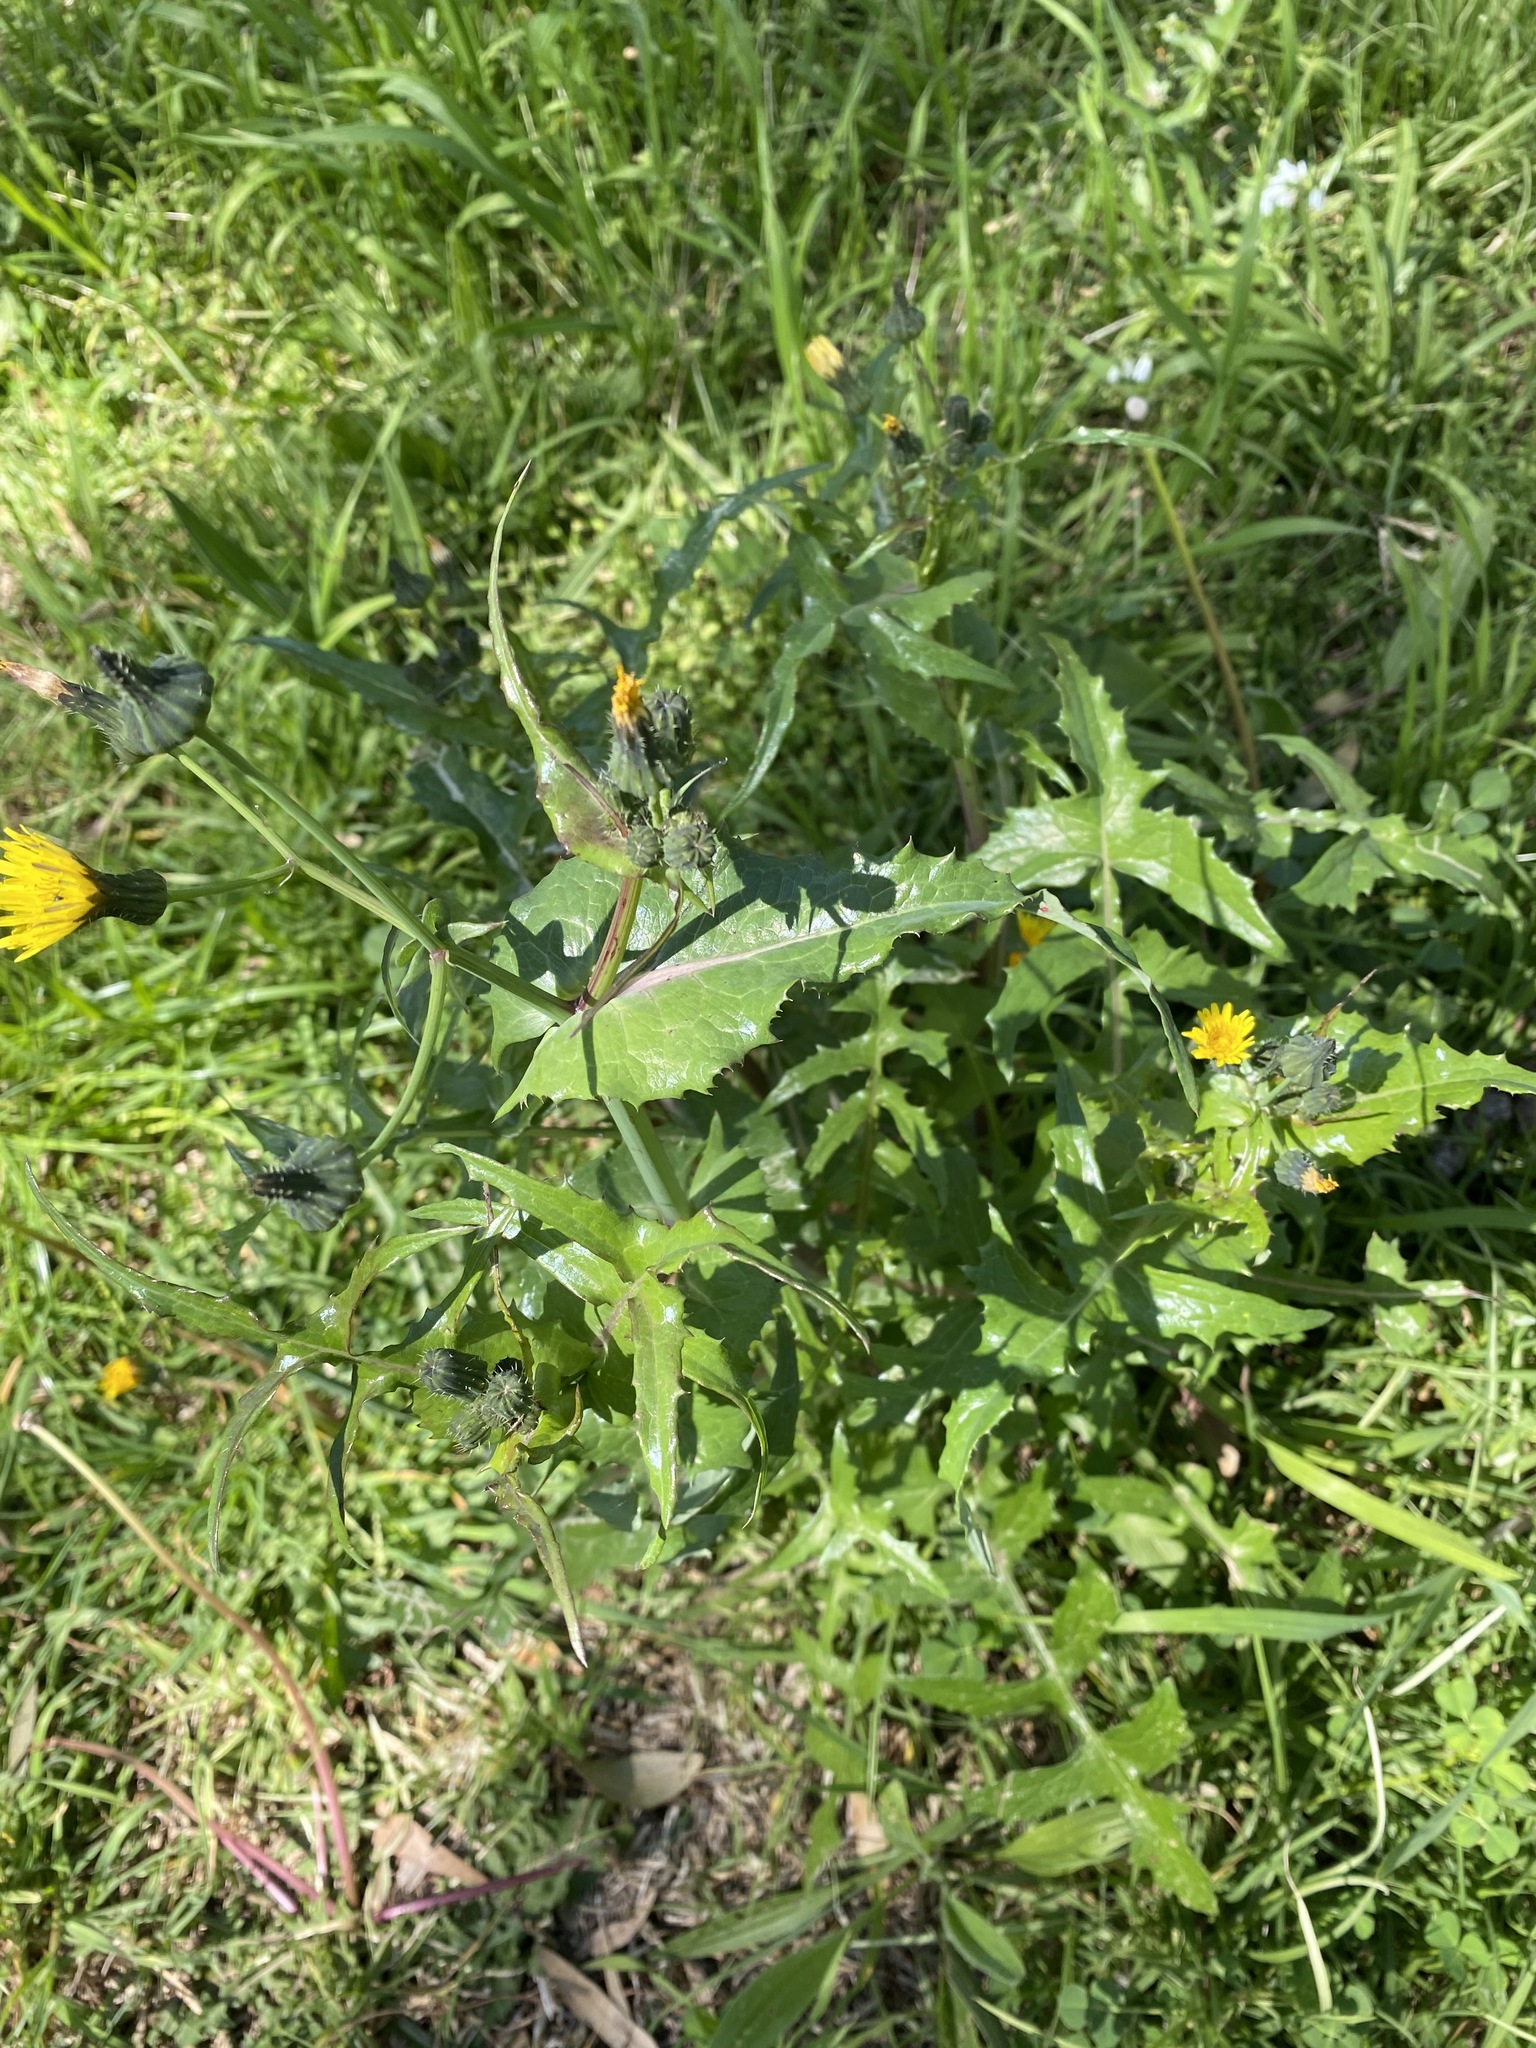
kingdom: Plantae
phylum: Tracheophyta
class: Magnoliopsida
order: Asterales
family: Asteraceae
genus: Sonchus
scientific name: Sonchus oleraceus
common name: Common sowthistle
